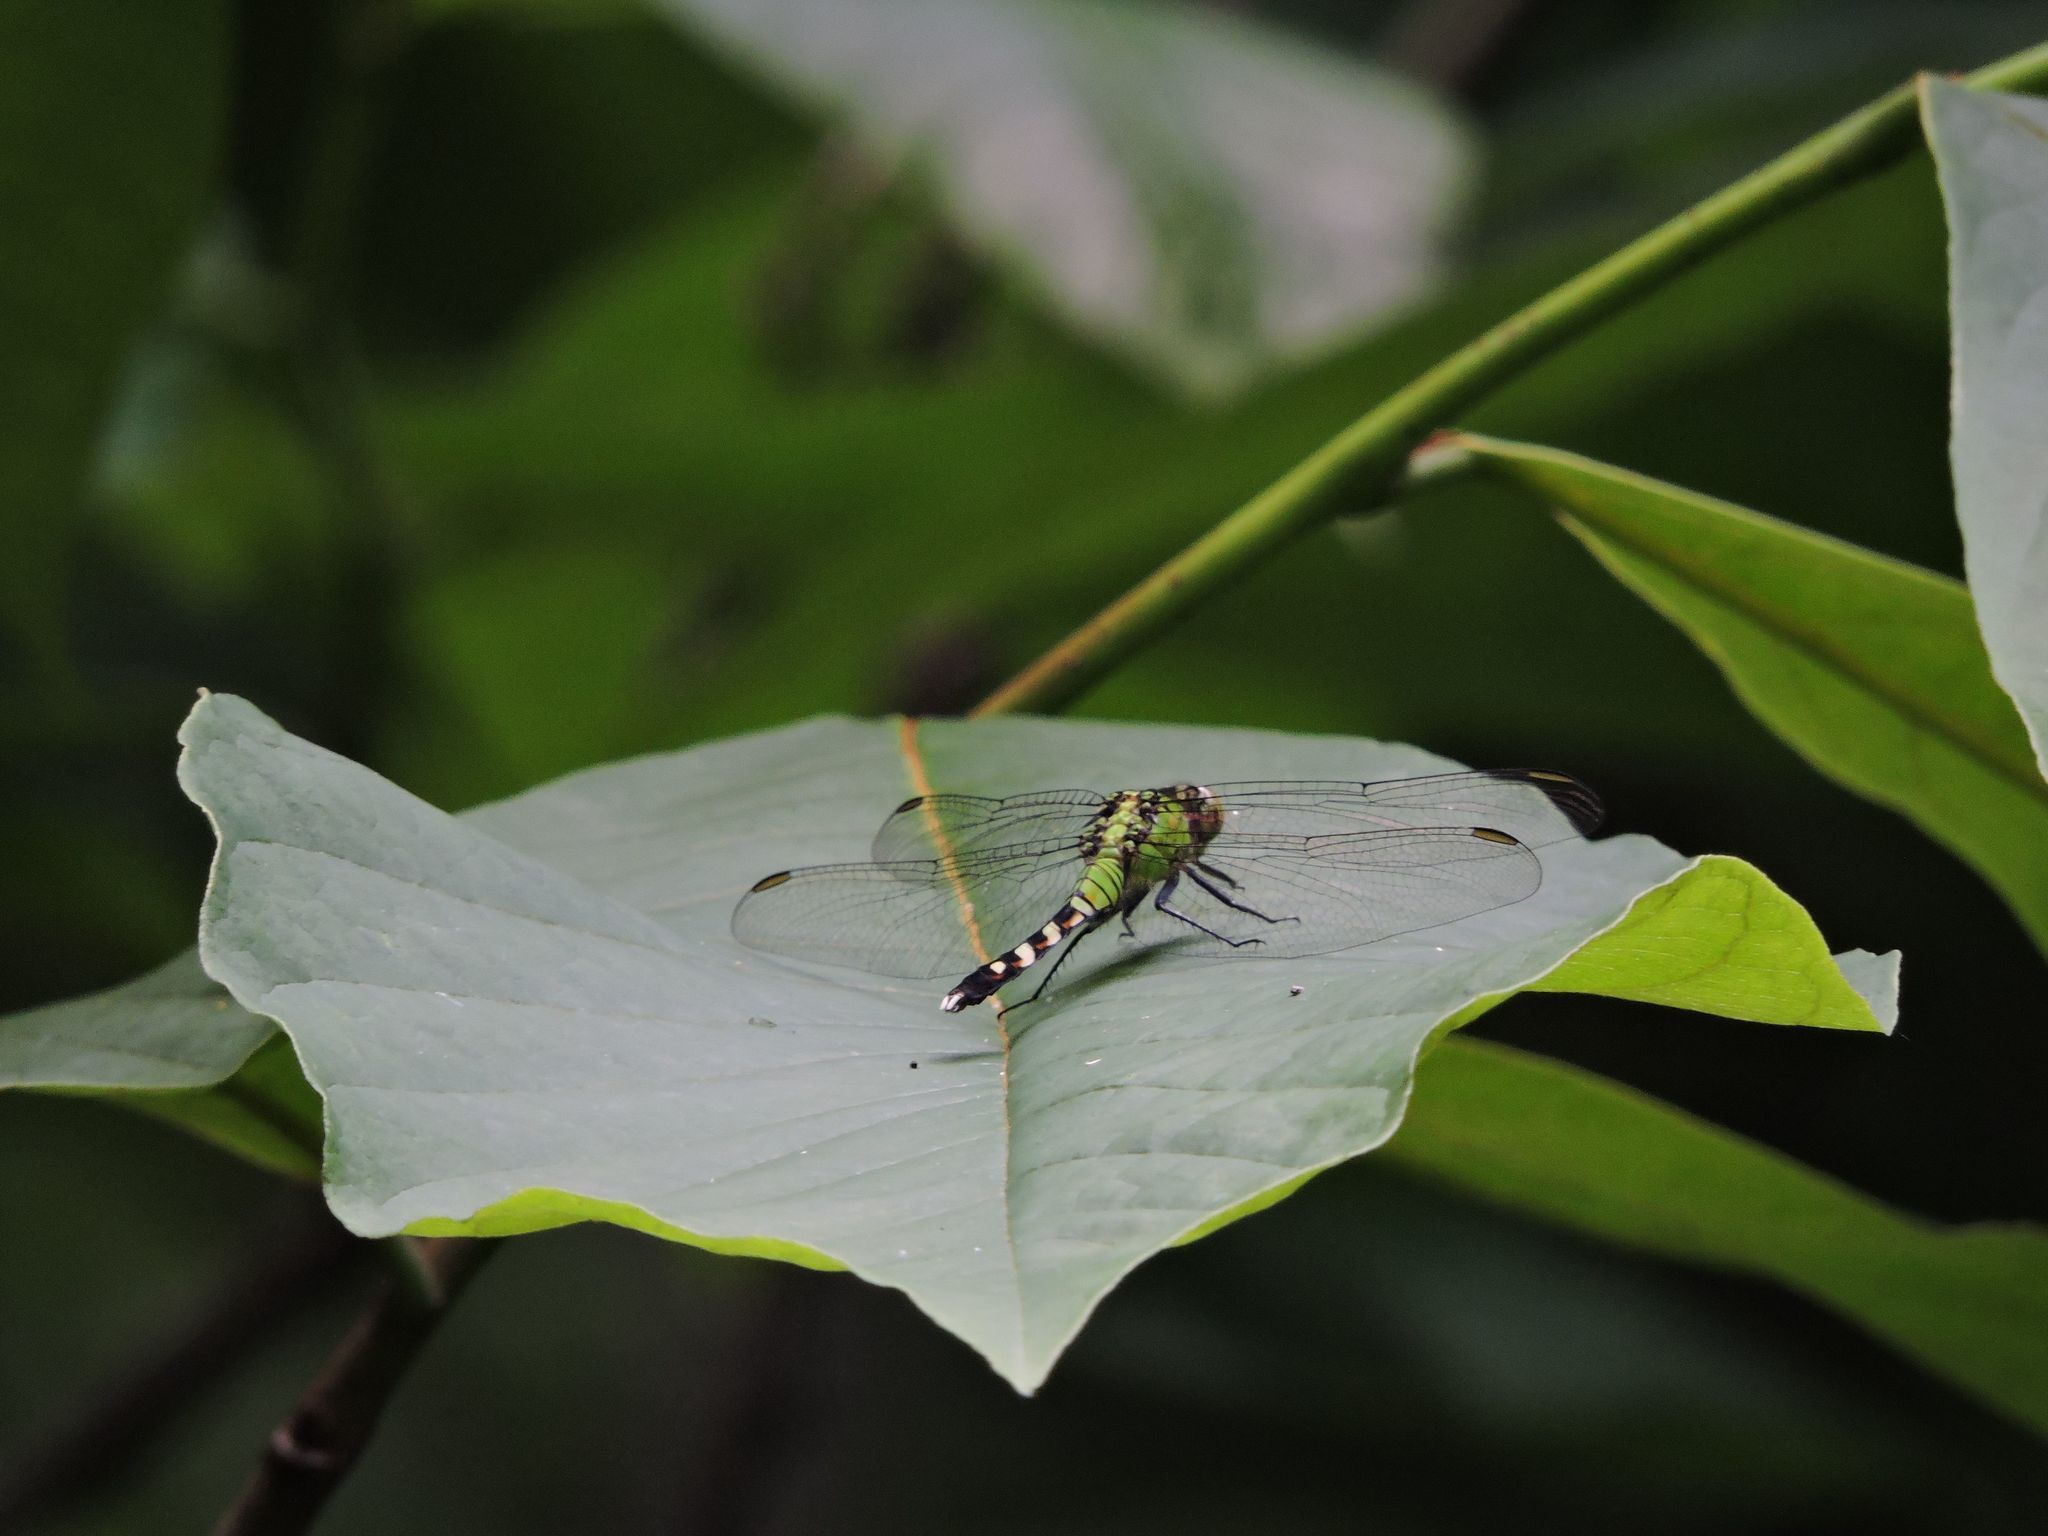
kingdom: Animalia
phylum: Arthropoda
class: Insecta
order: Odonata
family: Libellulidae
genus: Erythemis
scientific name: Erythemis simplicicollis
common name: Eastern pondhawk
